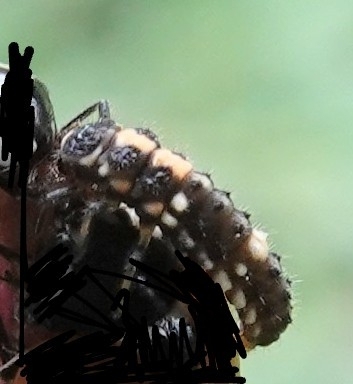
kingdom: Animalia
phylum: Arthropoda
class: Insecta
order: Coleoptera
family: Coccinellidae
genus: Propylaea
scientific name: Propylaea quatuordecimpunctata
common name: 14-spotted ladybird beetle
